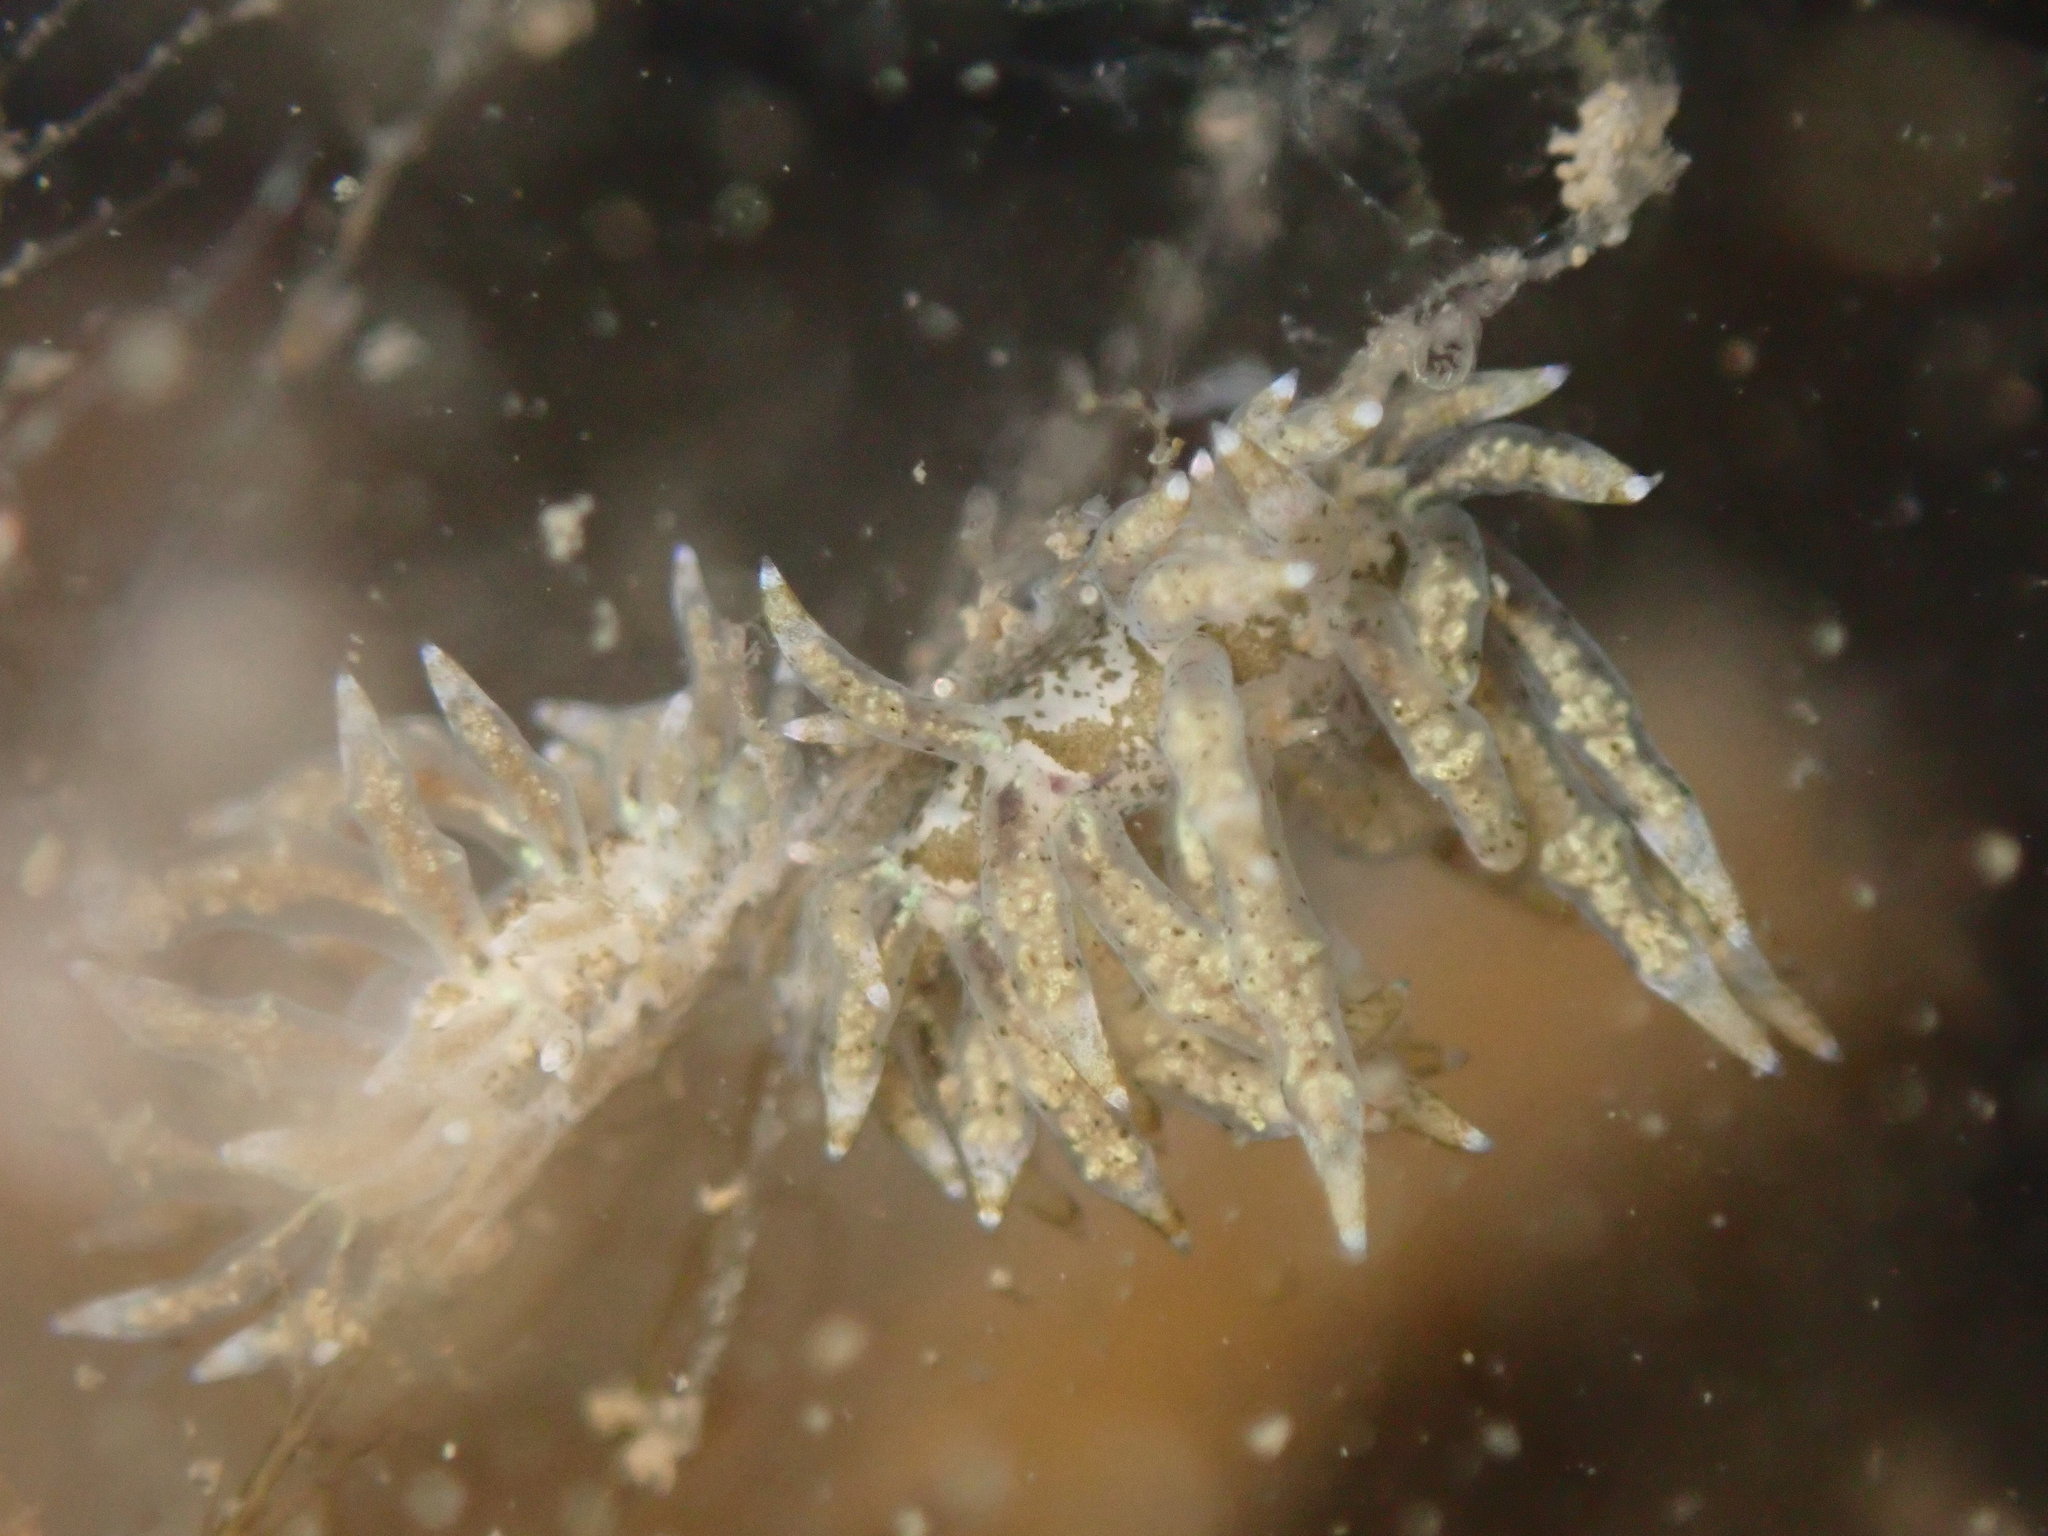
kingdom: Animalia
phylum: Mollusca
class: Gastropoda
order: Nudibranchia
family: Eubranchidae
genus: Eubranchus
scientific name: Eubranchus rustyus
